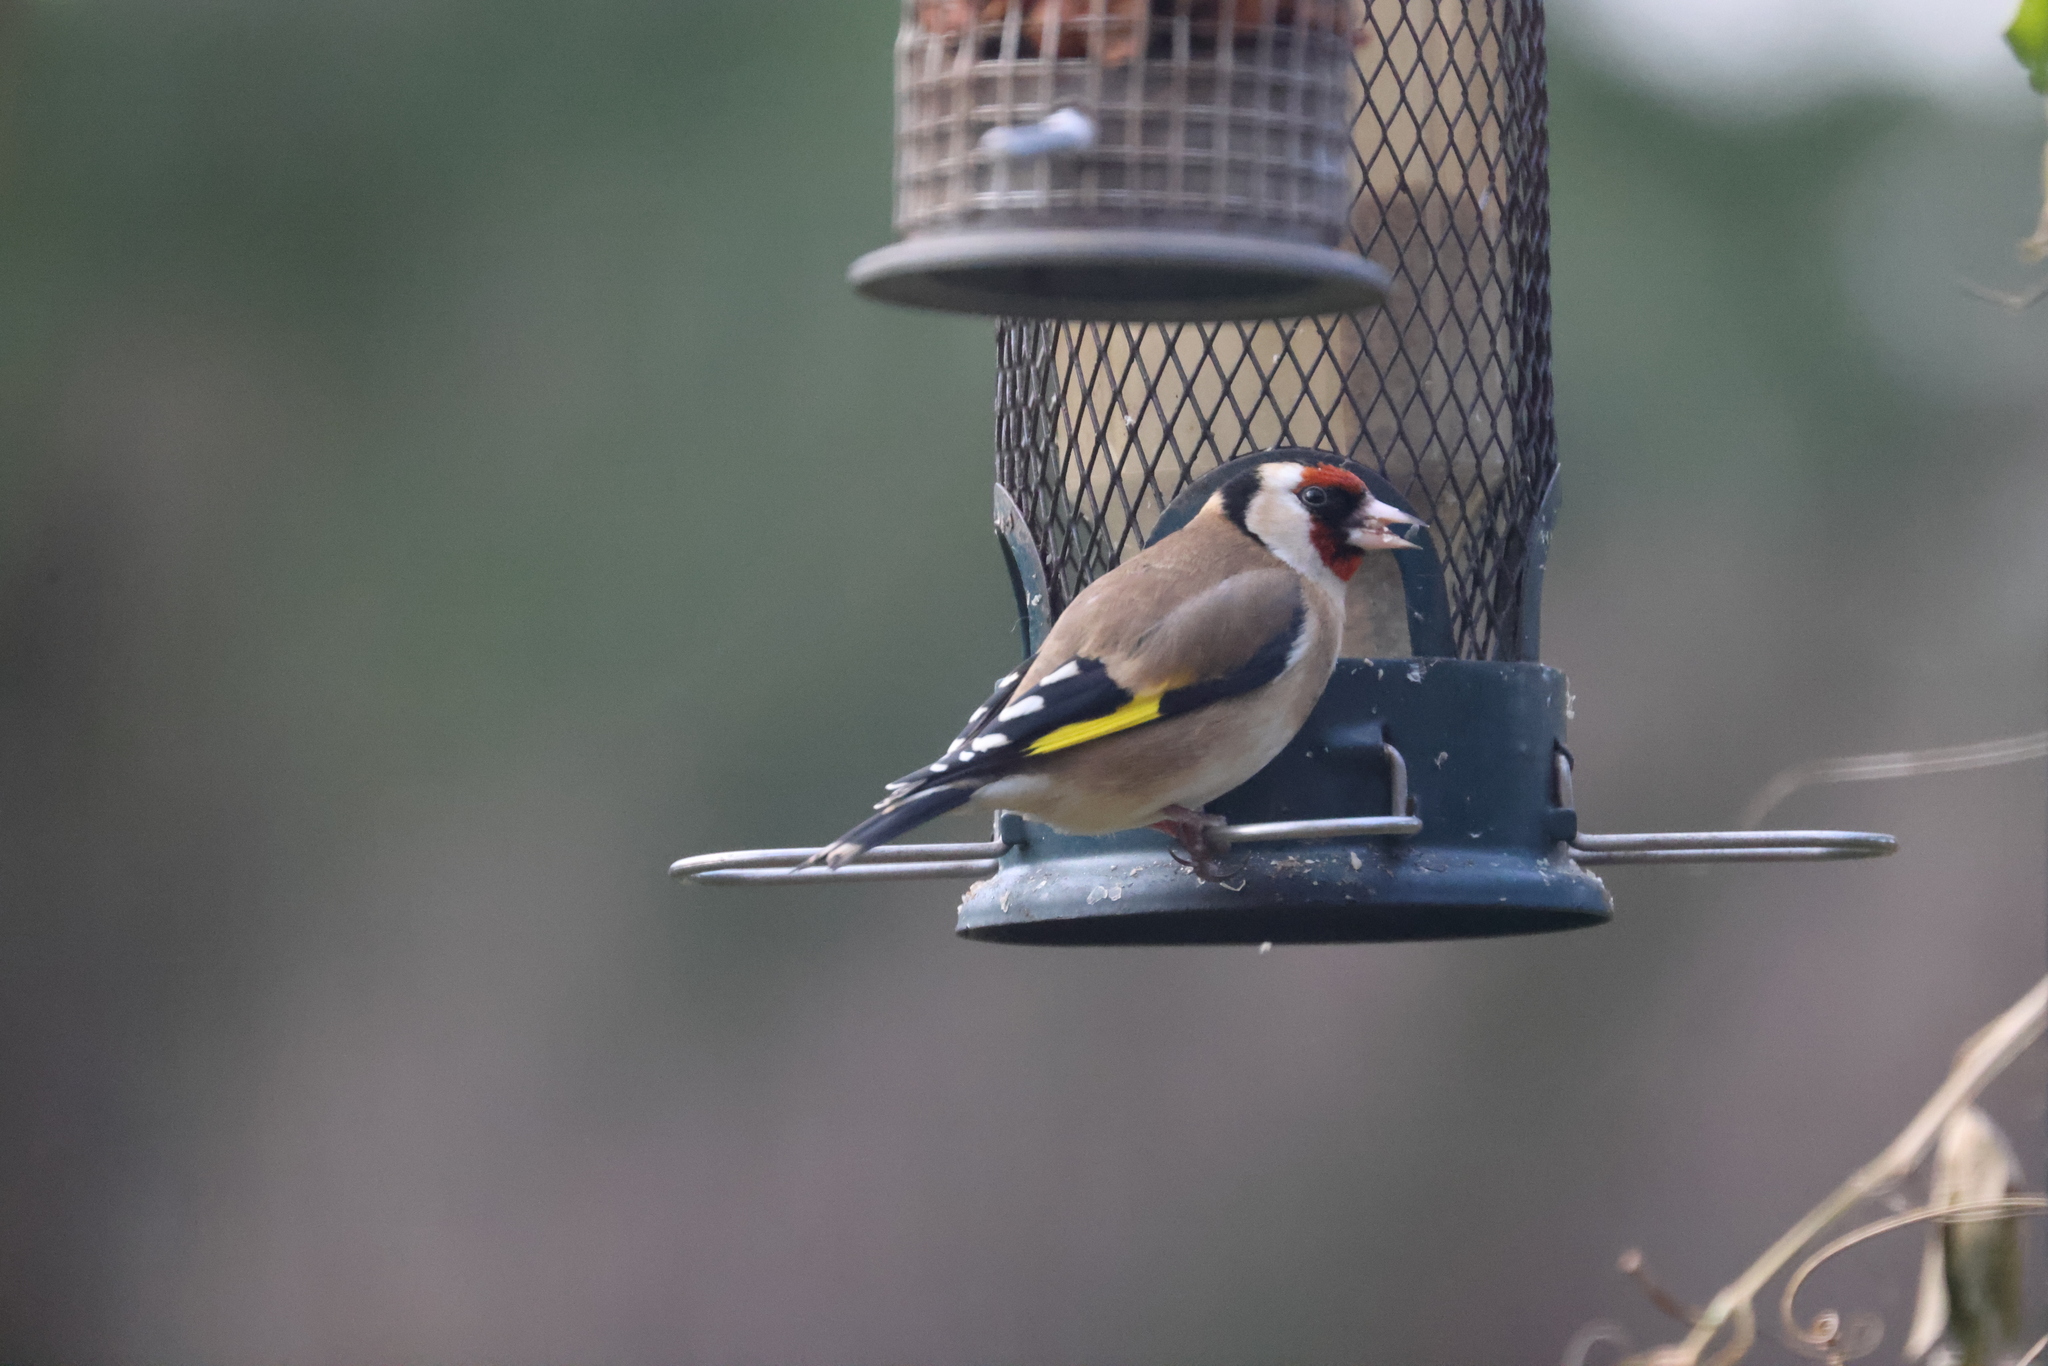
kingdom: Animalia
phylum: Chordata
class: Aves
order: Passeriformes
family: Fringillidae
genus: Carduelis
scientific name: Carduelis carduelis
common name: European goldfinch
